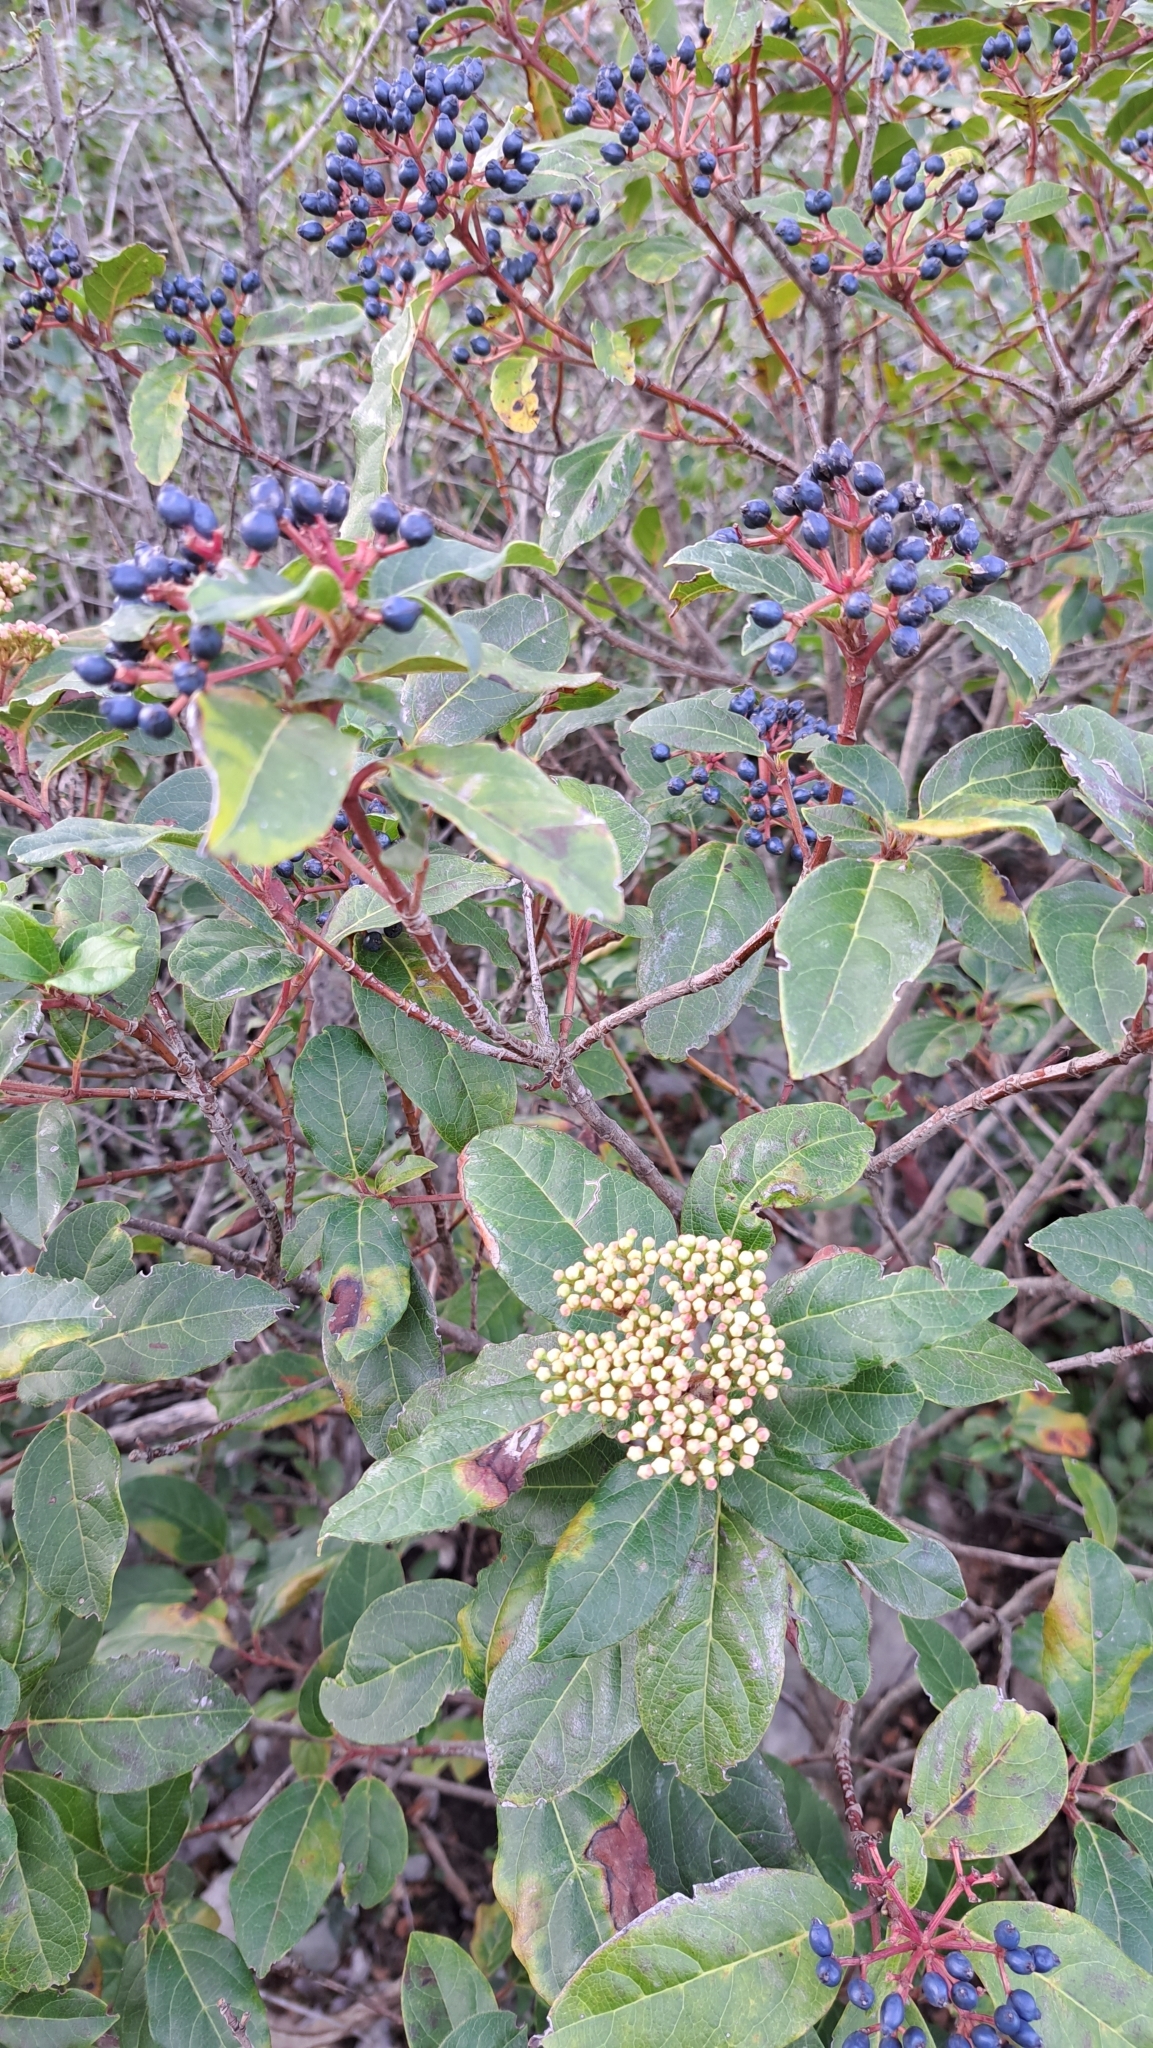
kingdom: Plantae
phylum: Tracheophyta
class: Magnoliopsida
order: Dipsacales
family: Viburnaceae
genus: Viburnum
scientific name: Viburnum tinus
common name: Laurustinus
